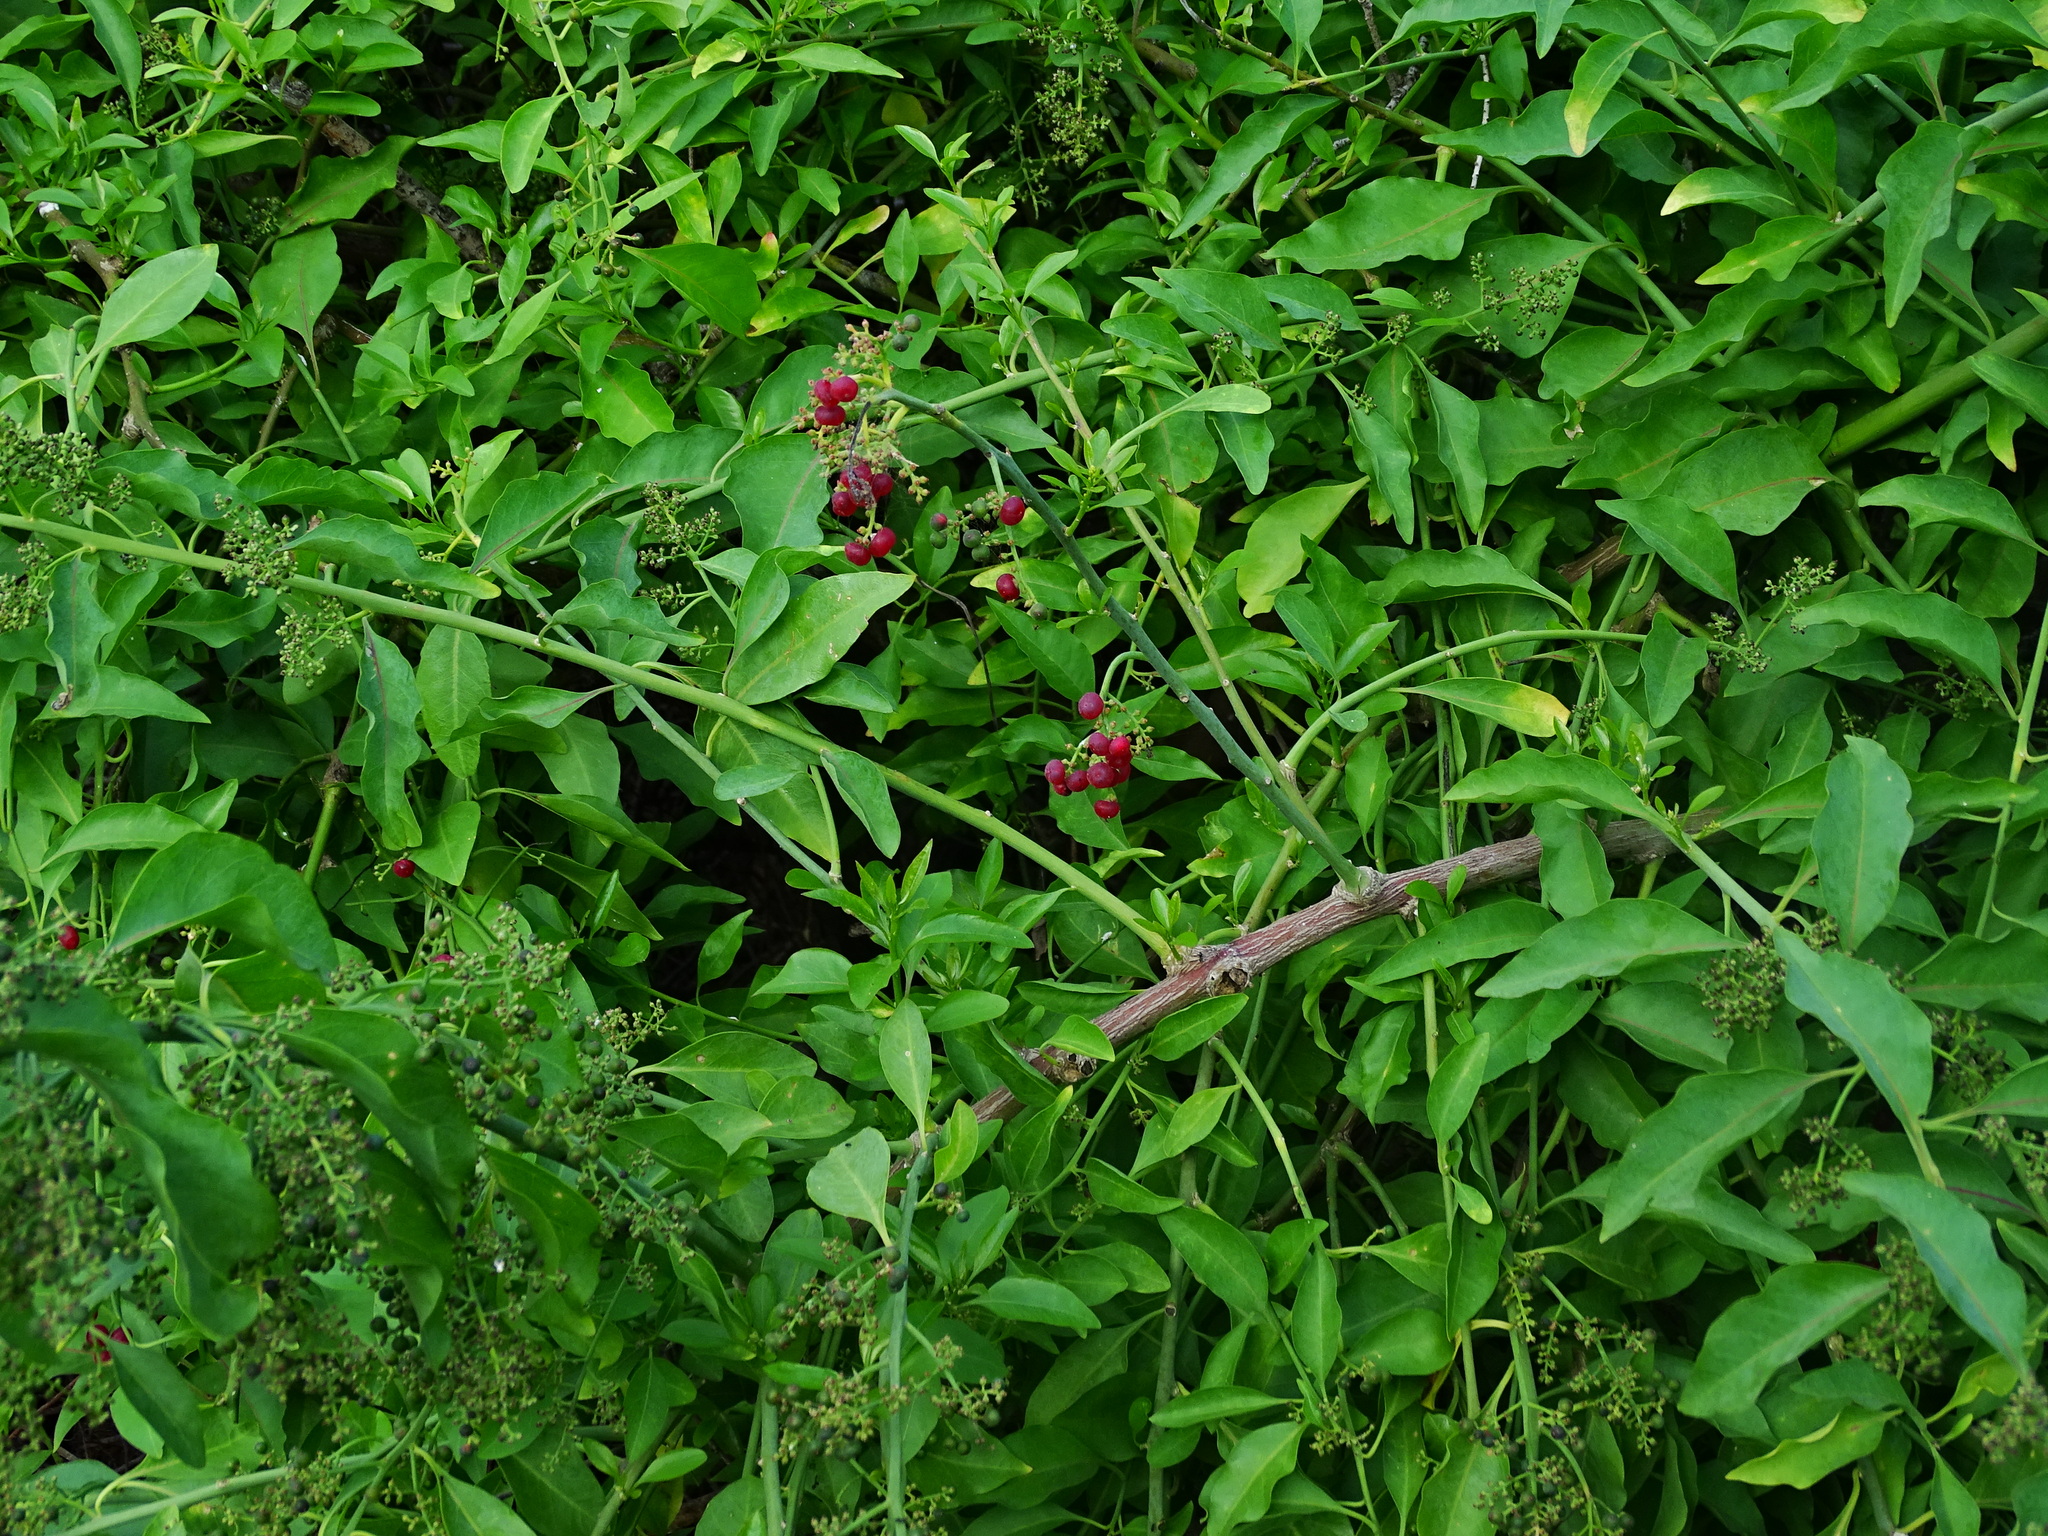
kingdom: Plantae
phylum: Tracheophyta
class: Magnoliopsida
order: Caryophyllales
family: Amaranthaceae
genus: Bosea
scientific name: Bosea yervamora
